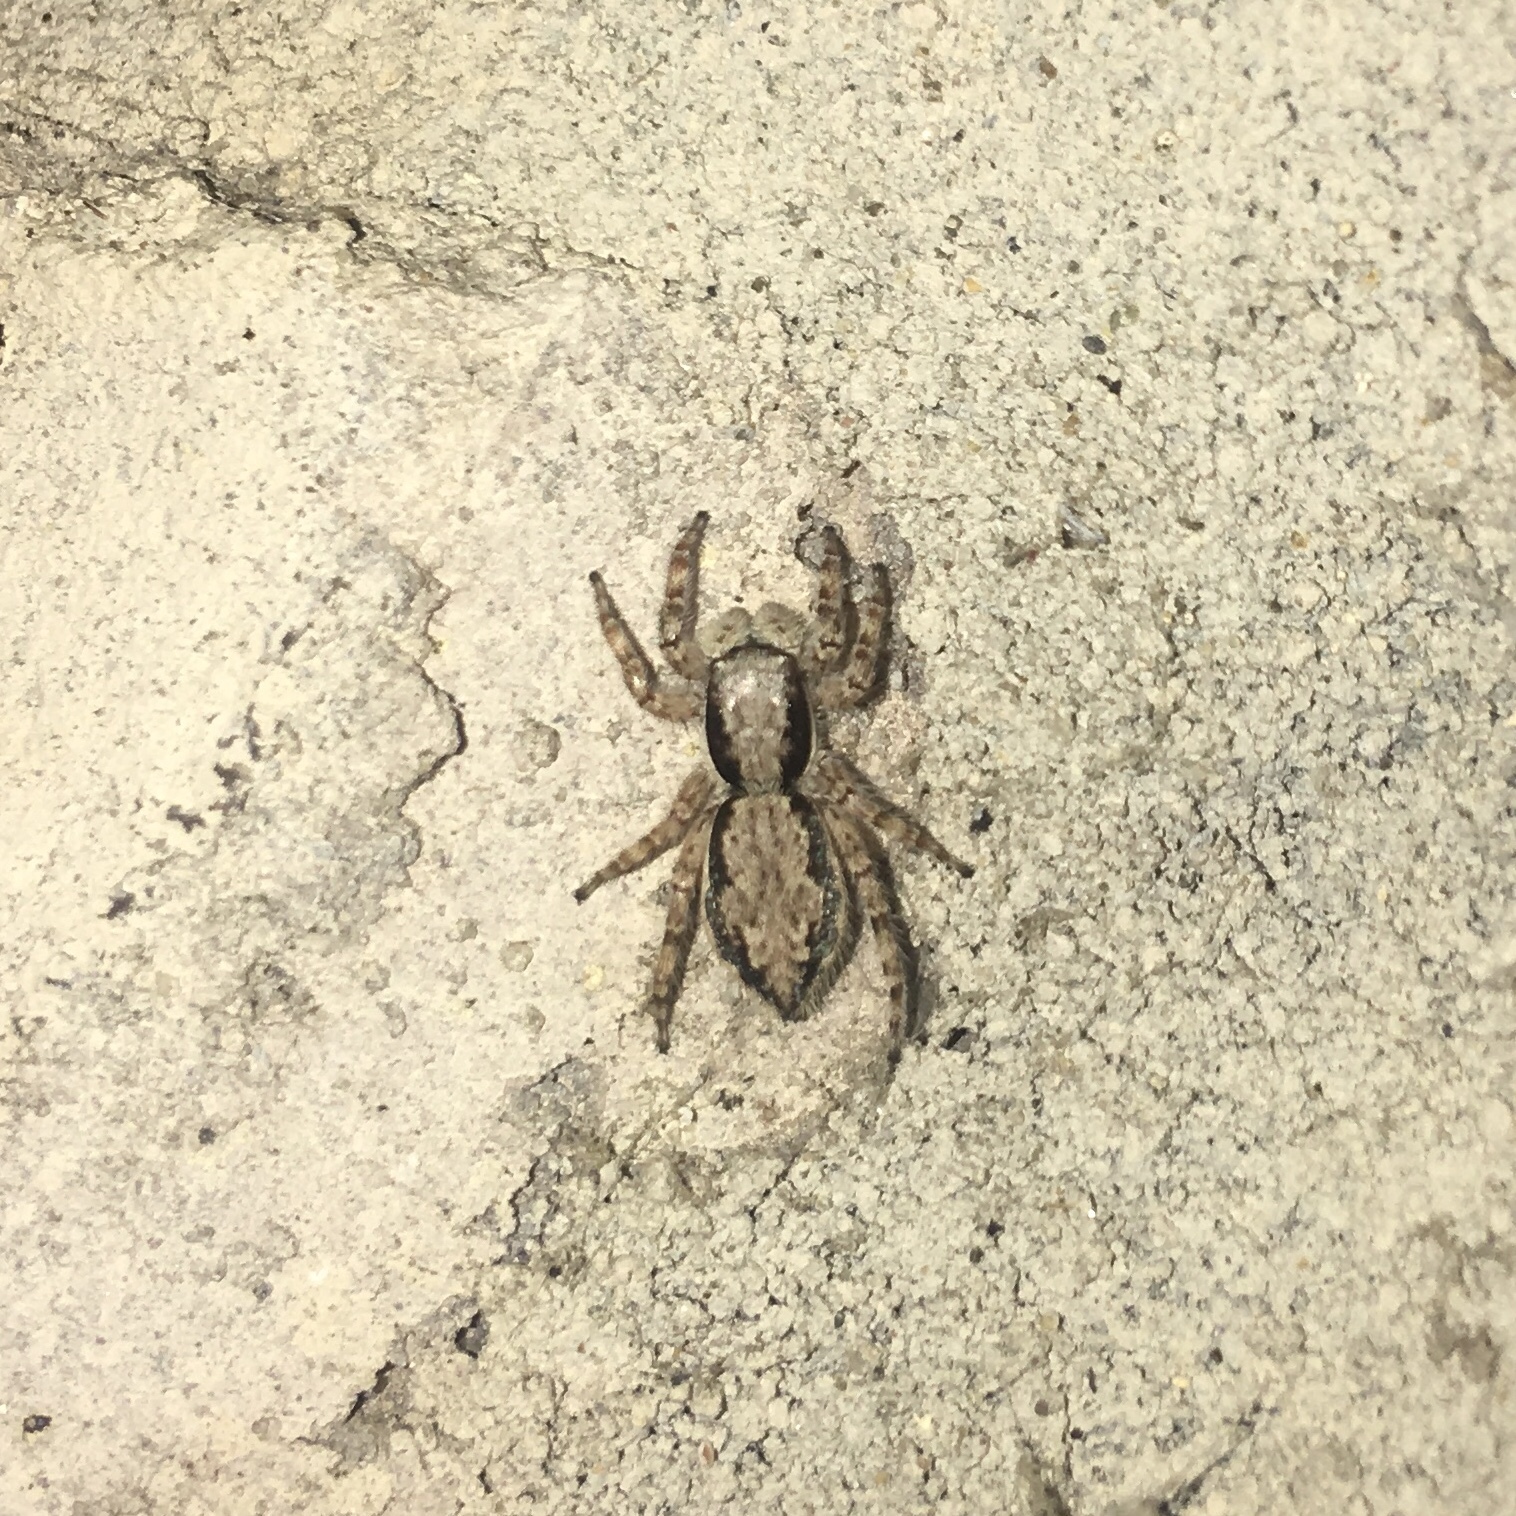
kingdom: Animalia
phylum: Arthropoda
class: Arachnida
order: Araneae
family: Salticidae
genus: Menemerus
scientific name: Menemerus bivittatus
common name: Gray wall jumper
